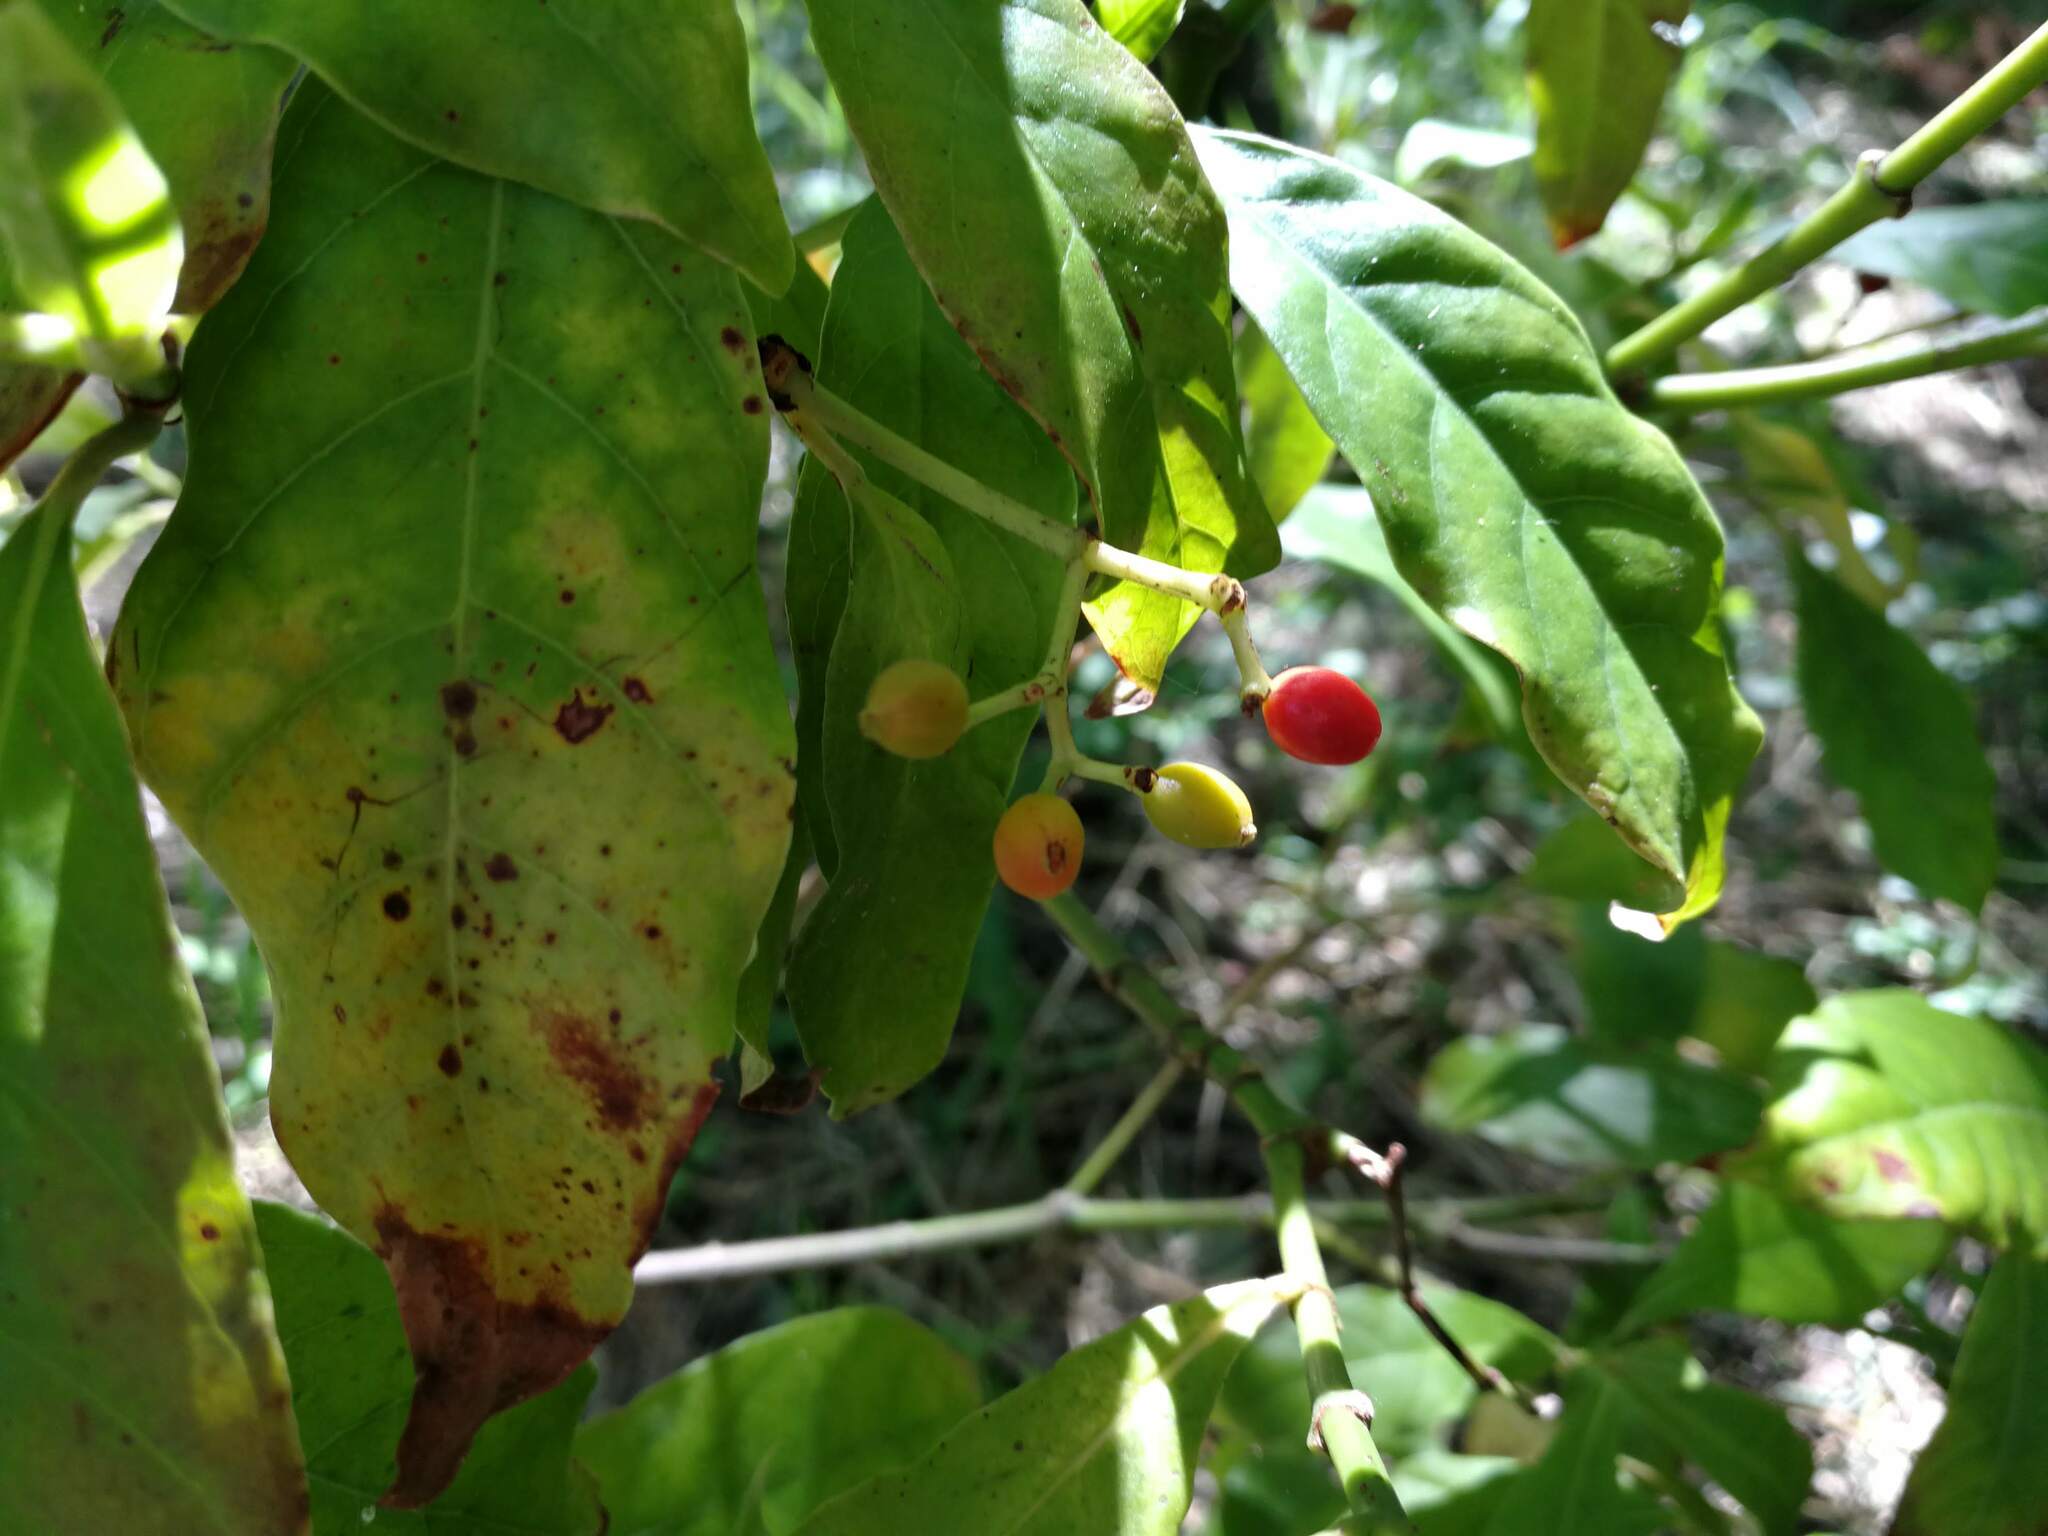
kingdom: Plantae
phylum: Tracheophyta
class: Magnoliopsida
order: Gentianales
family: Rubiaceae
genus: Psychotria
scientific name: Psychotria carthagenensis
